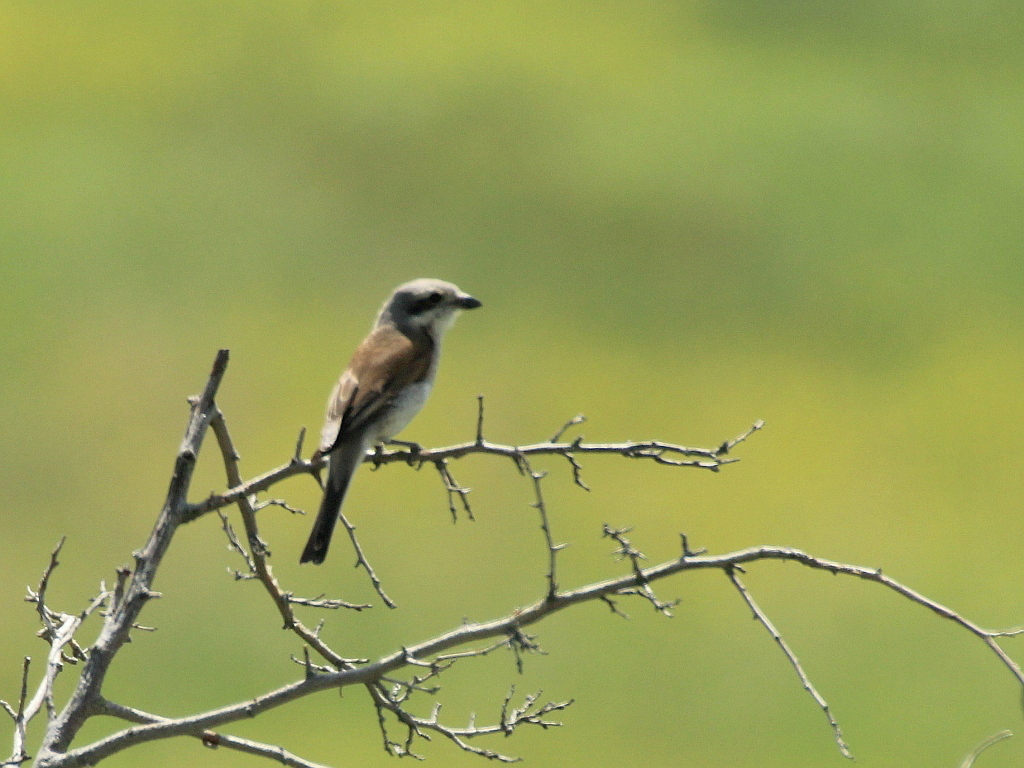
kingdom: Animalia
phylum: Chordata
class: Aves
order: Passeriformes
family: Laniidae
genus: Lanius
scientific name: Lanius collurio
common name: Red-backed shrike
